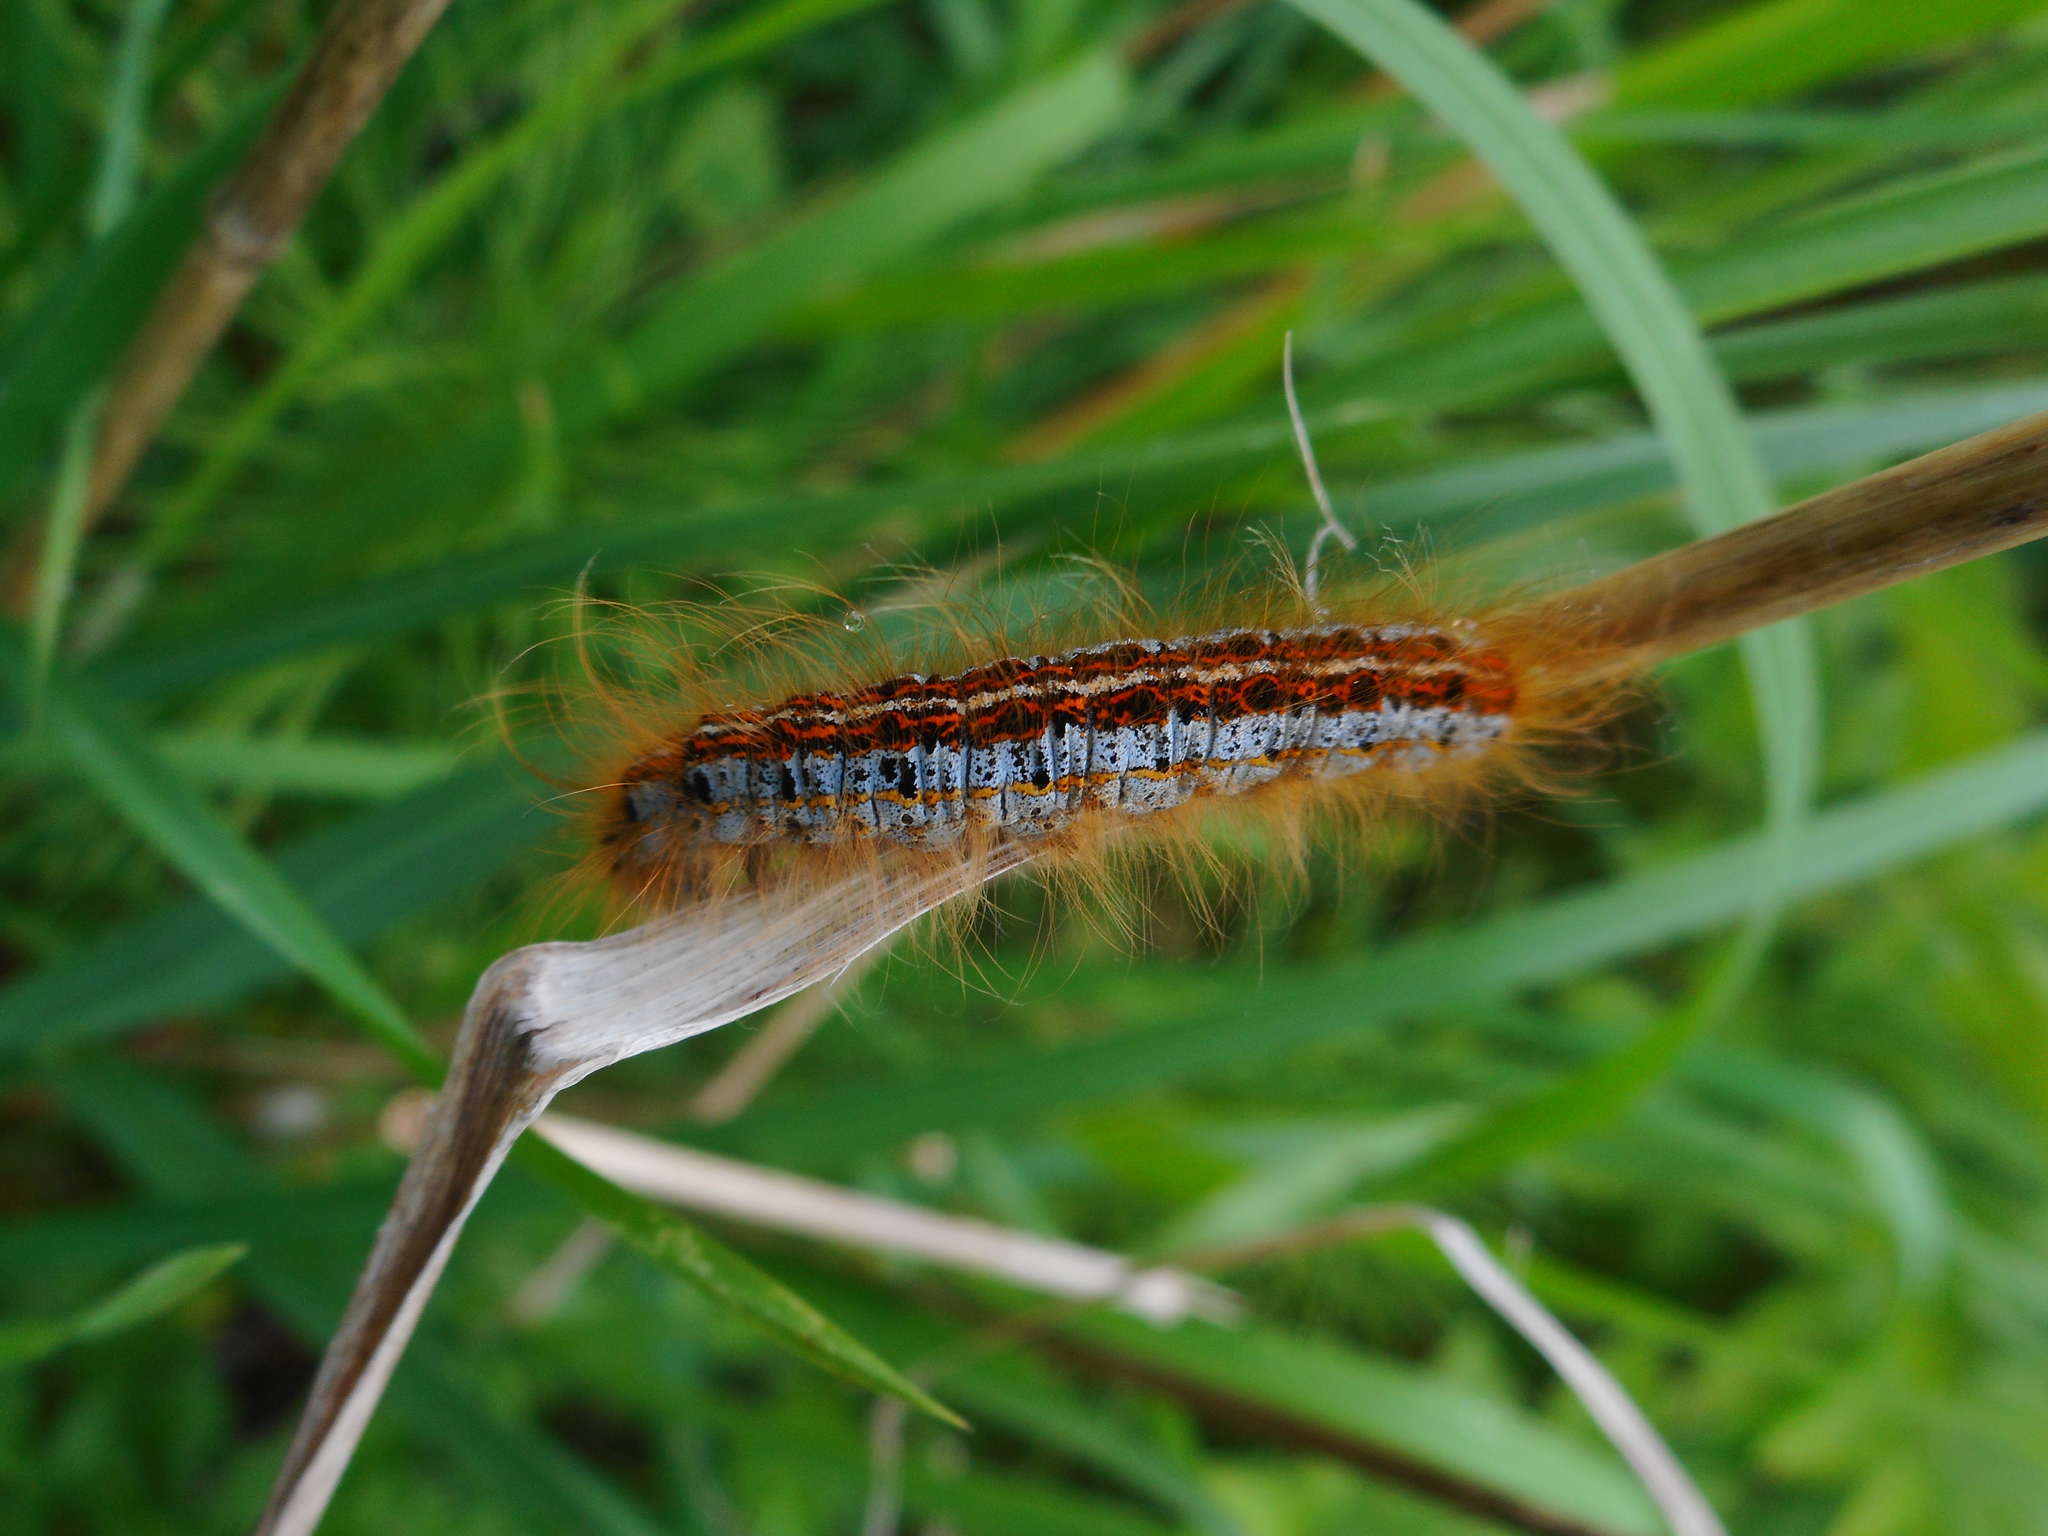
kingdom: Animalia
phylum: Arthropoda
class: Insecta
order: Lepidoptera
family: Lasiocampidae
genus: Malacosoma
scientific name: Malacosoma castrense
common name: Ground lackey
